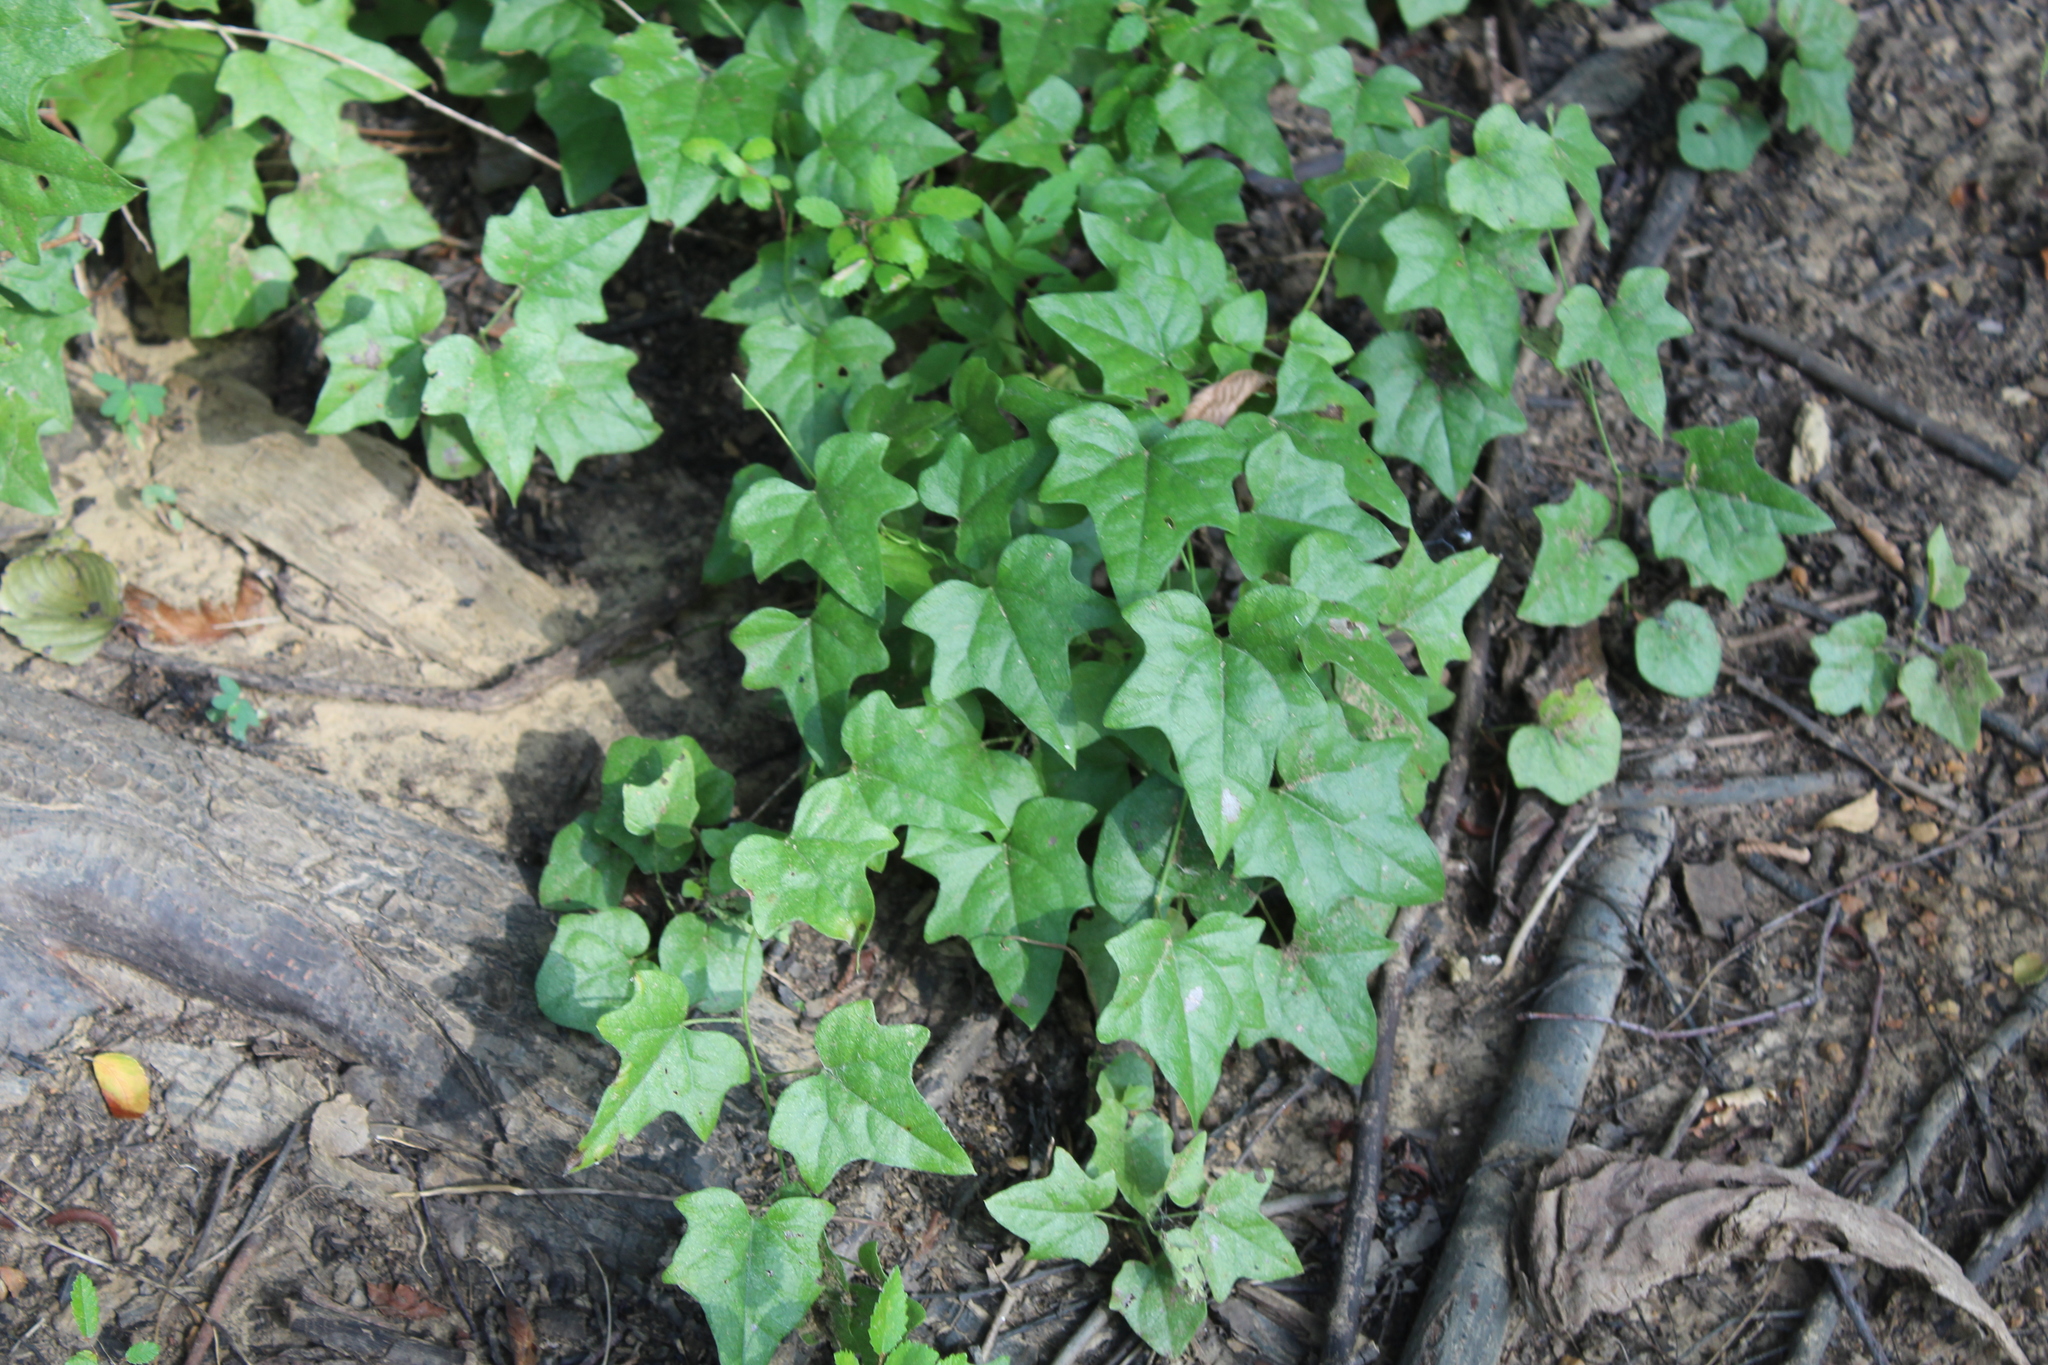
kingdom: Plantae
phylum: Tracheophyta
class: Magnoliopsida
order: Ranunculales
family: Menispermaceae
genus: Cocculus
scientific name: Cocculus carolinus
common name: Carolina moonseed
